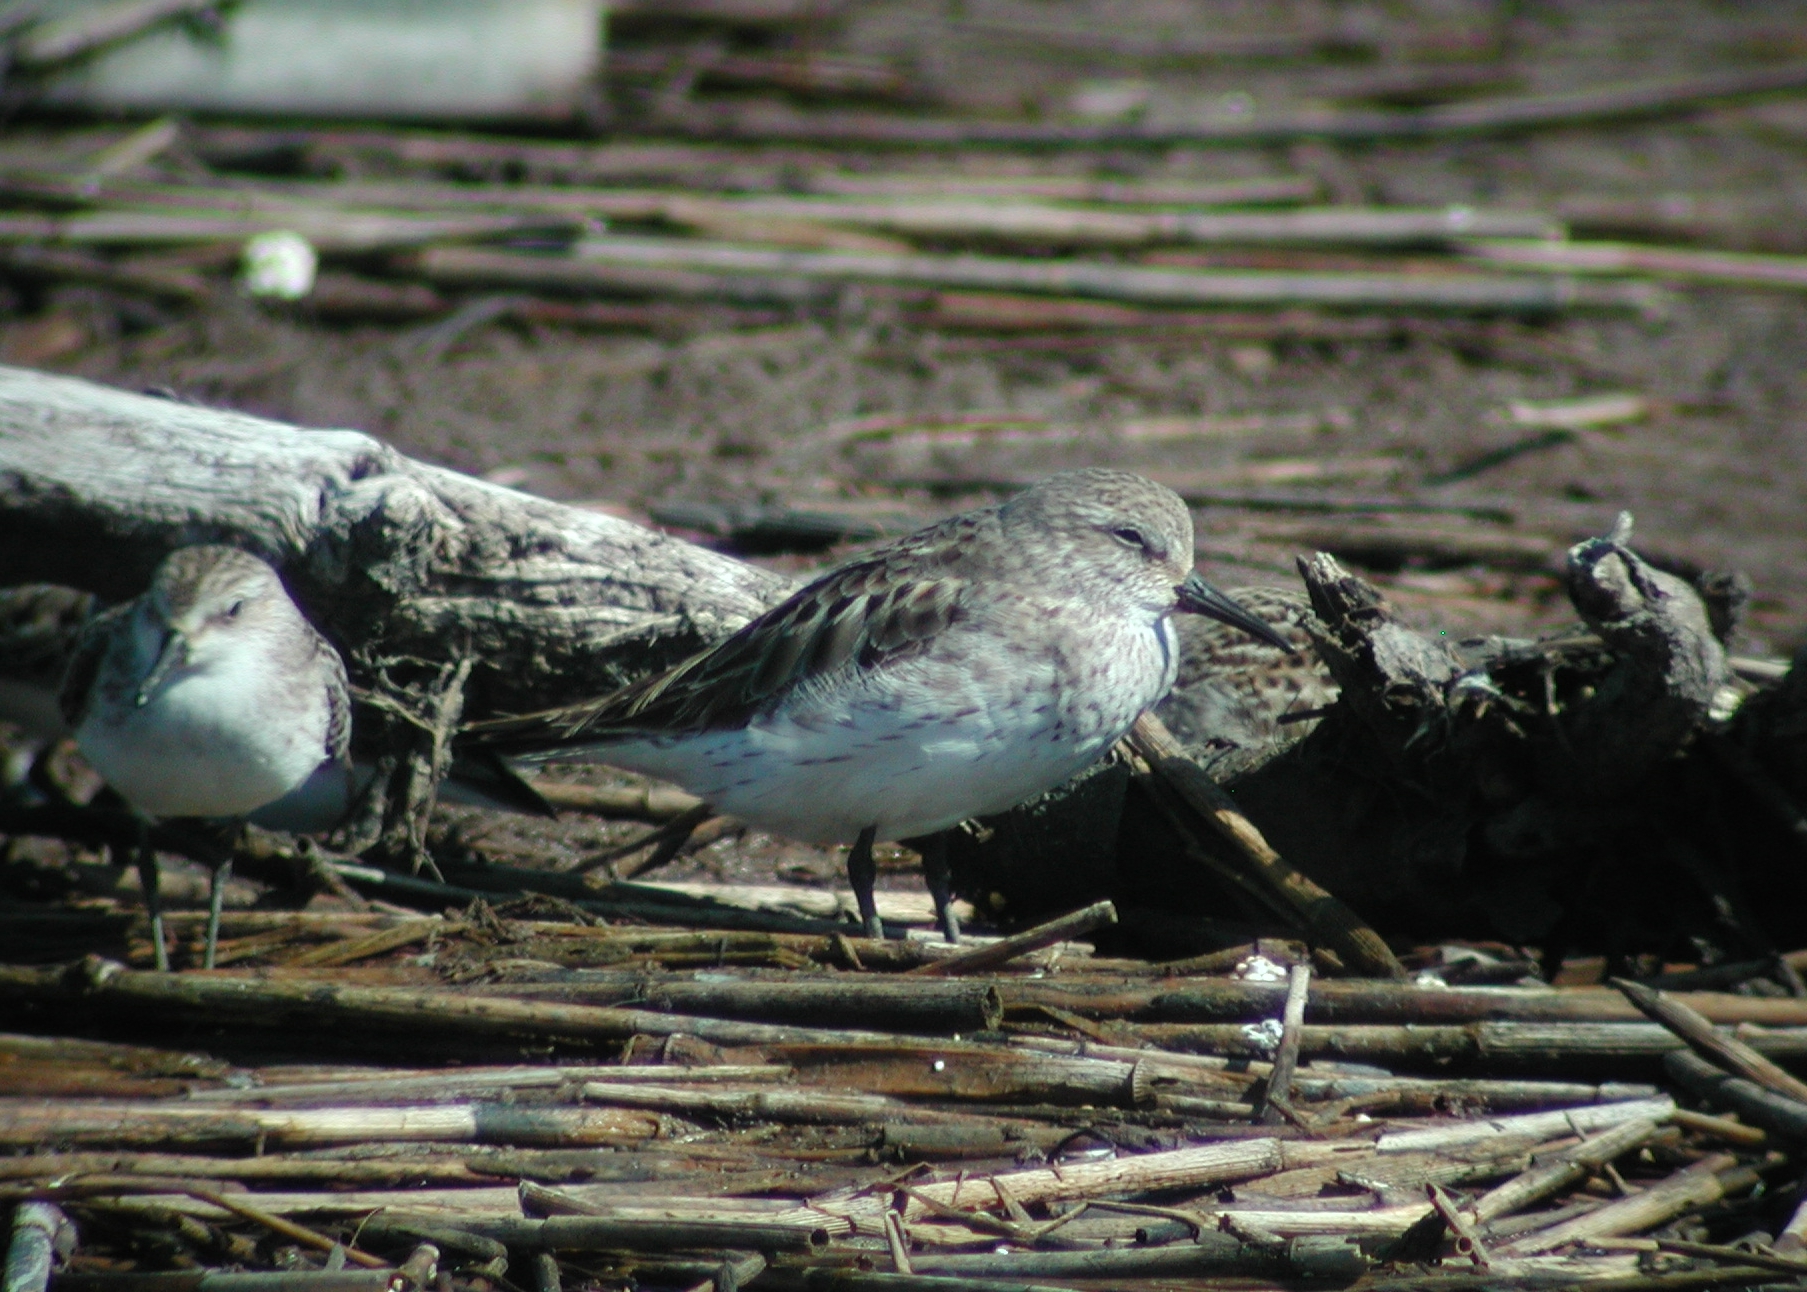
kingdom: Animalia
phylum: Chordata
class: Aves
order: Charadriiformes
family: Scolopacidae
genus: Calidris
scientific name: Calidris fuscicollis
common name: White-rumped sandpiper
